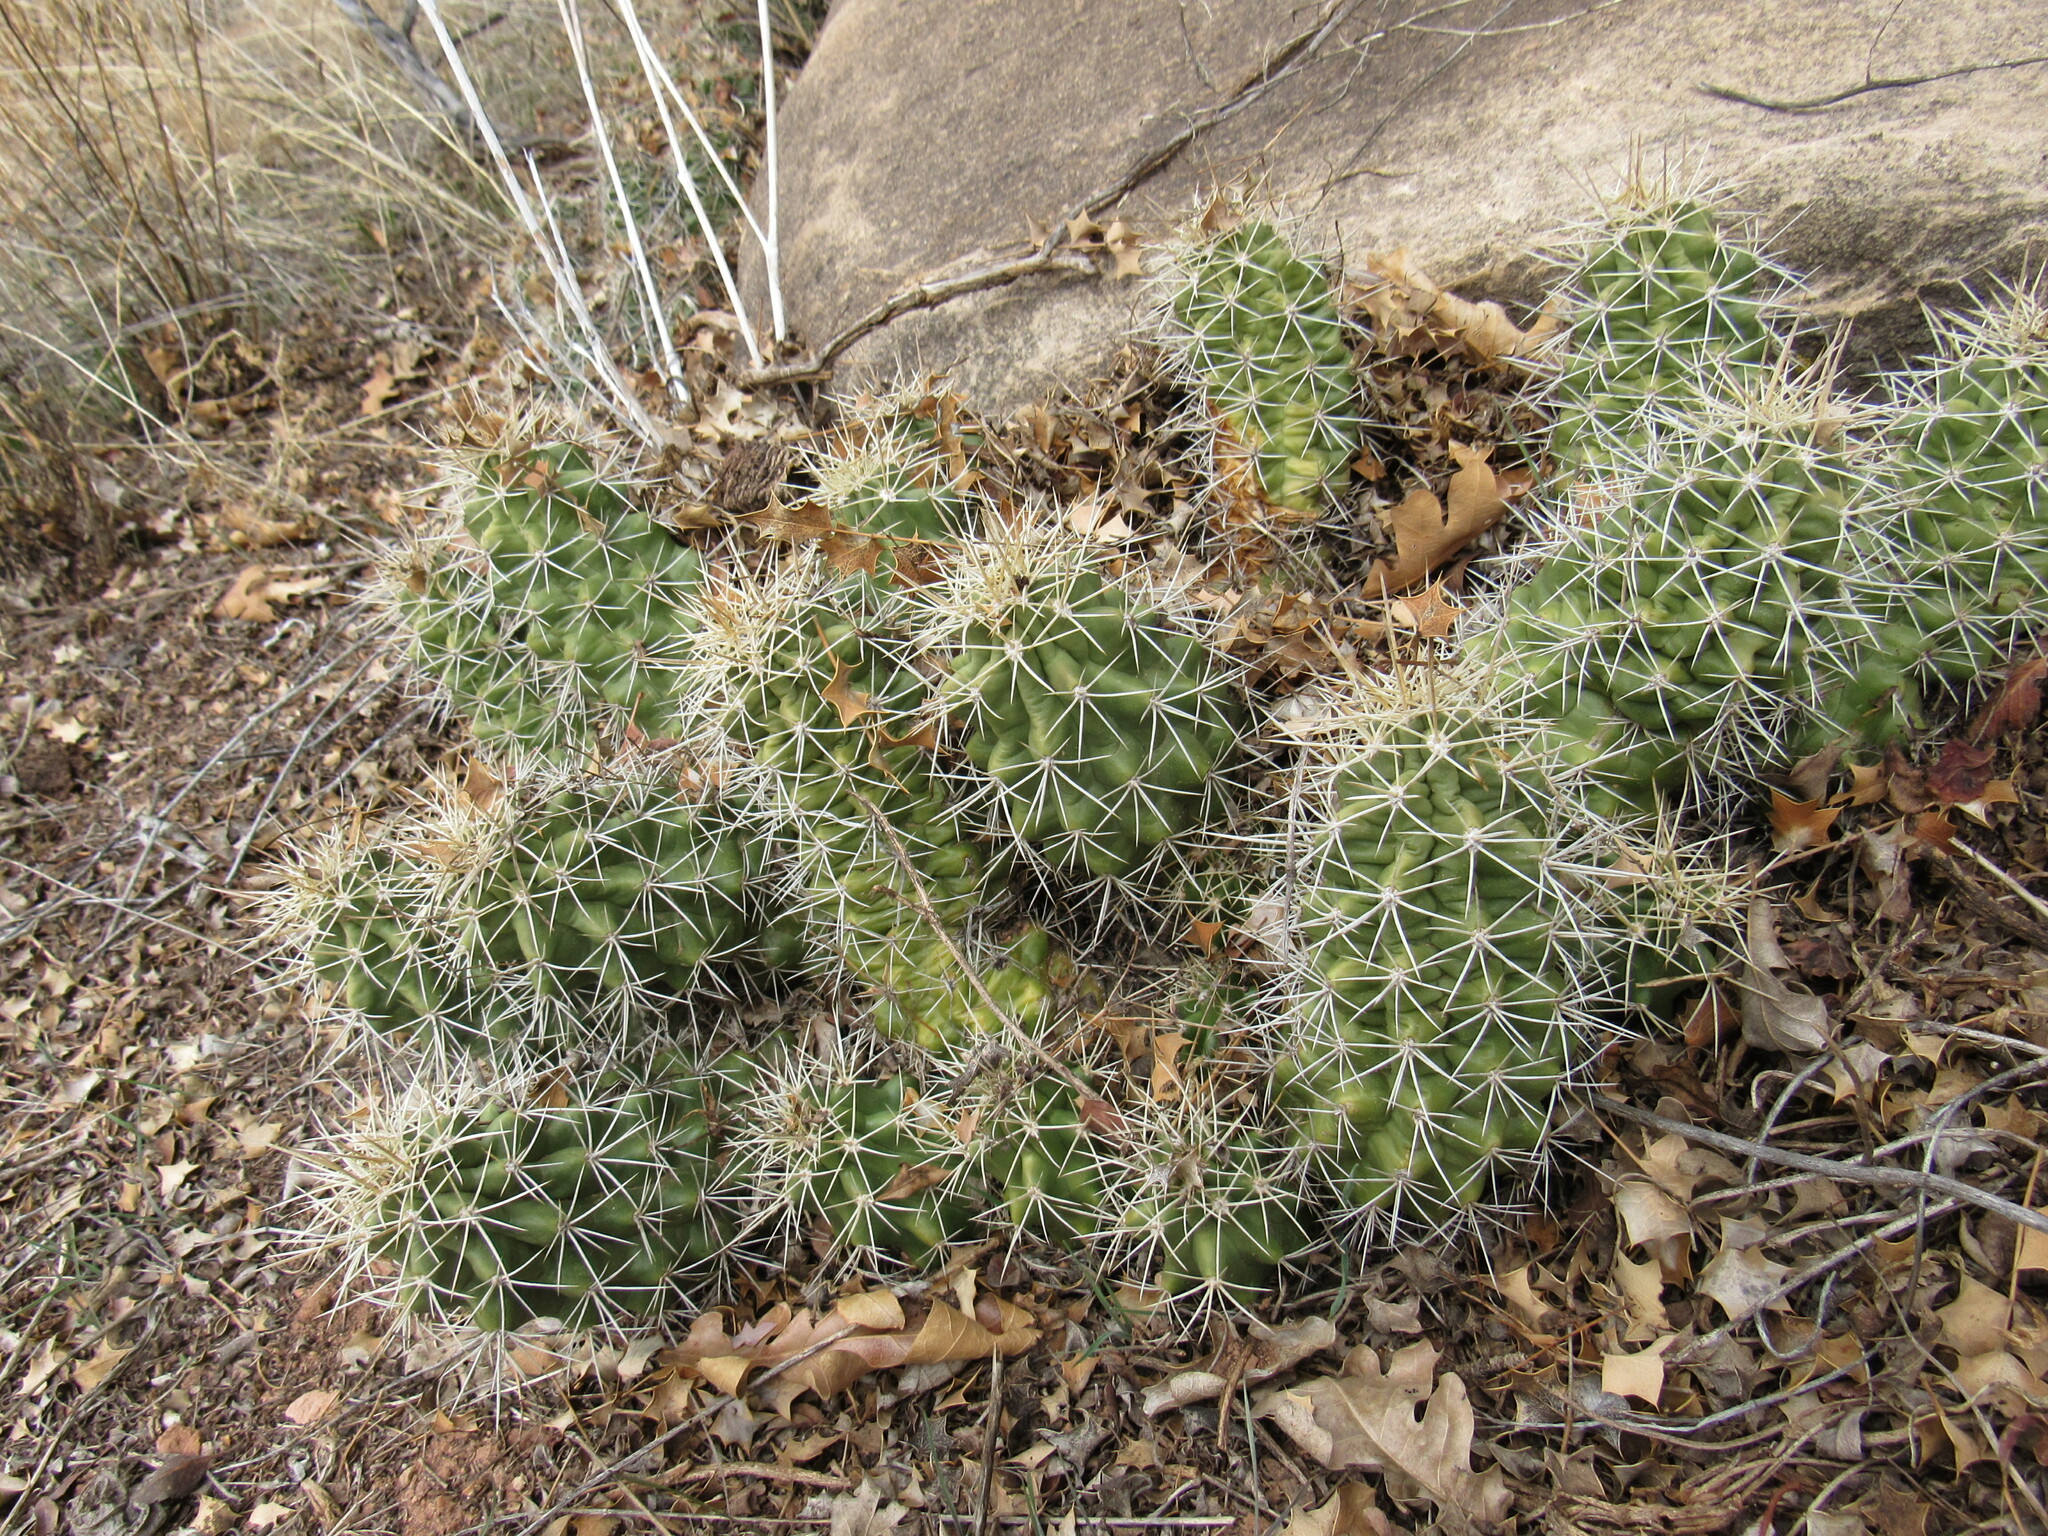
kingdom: Plantae
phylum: Tracheophyta
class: Magnoliopsida
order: Caryophyllales
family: Cactaceae
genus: Echinocereus
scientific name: Echinocereus triglochidiatus
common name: Claretcup hedgehog
